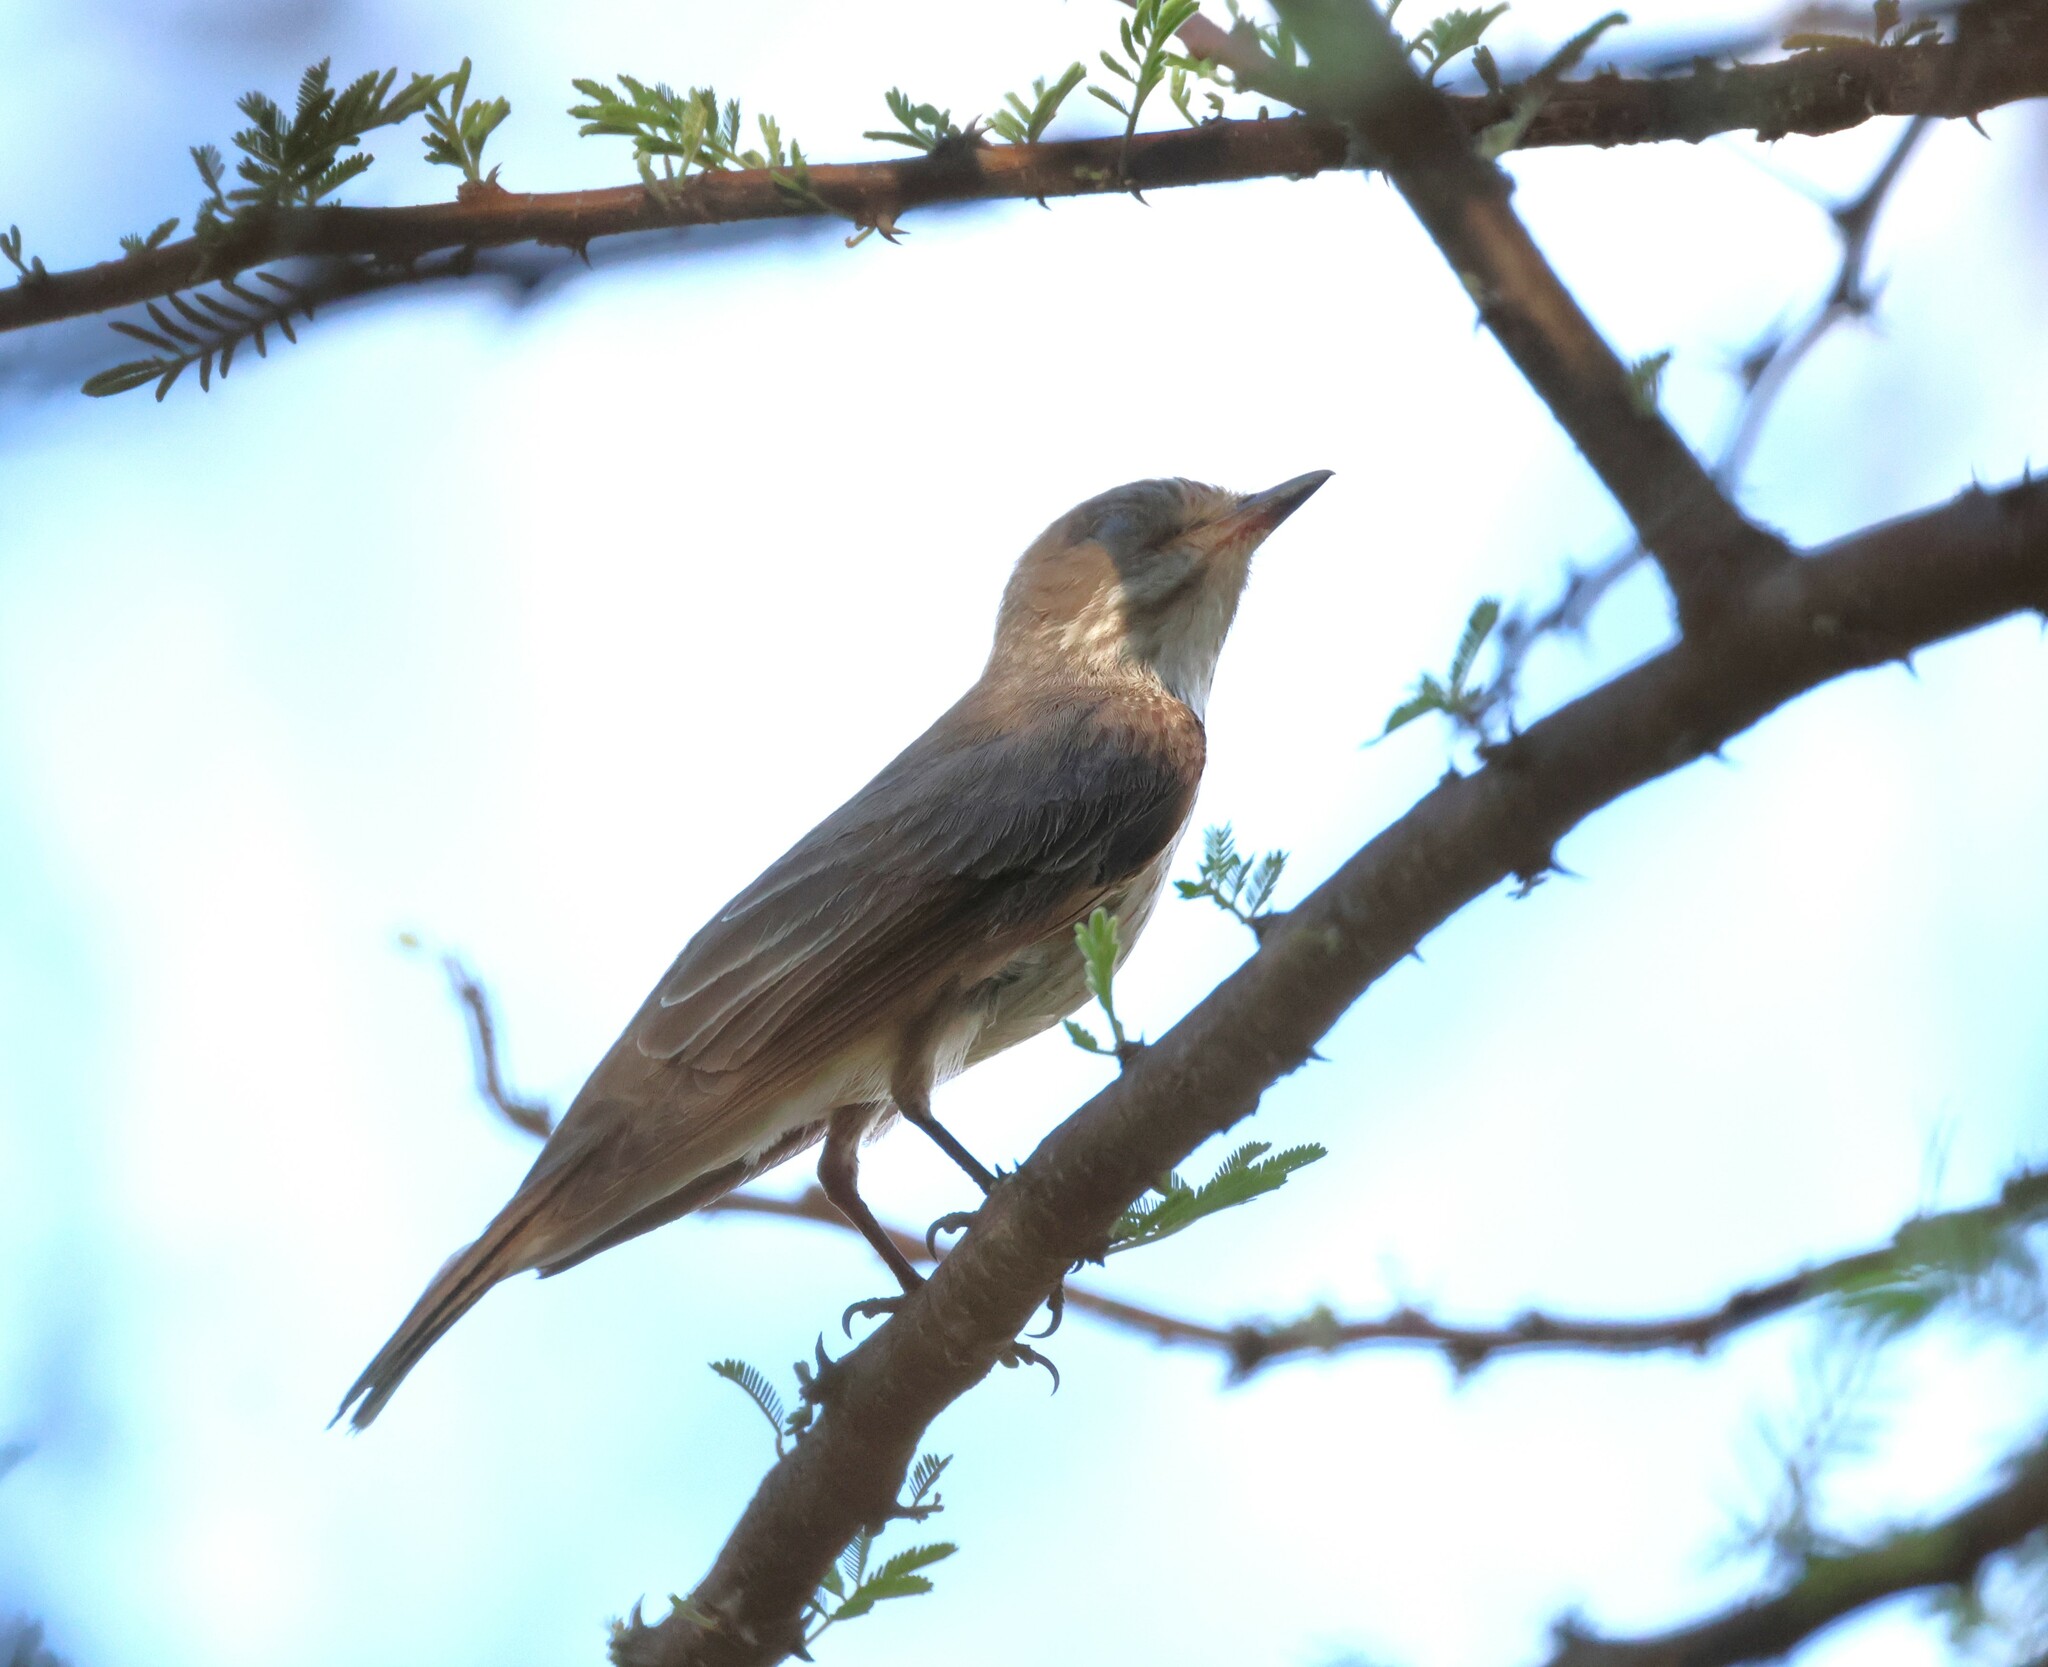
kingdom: Animalia
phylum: Chordata
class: Aves
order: Passeriformes
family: Muscicapidae
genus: Muscicapa
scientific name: Muscicapa striata
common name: Spotted flycatcher
